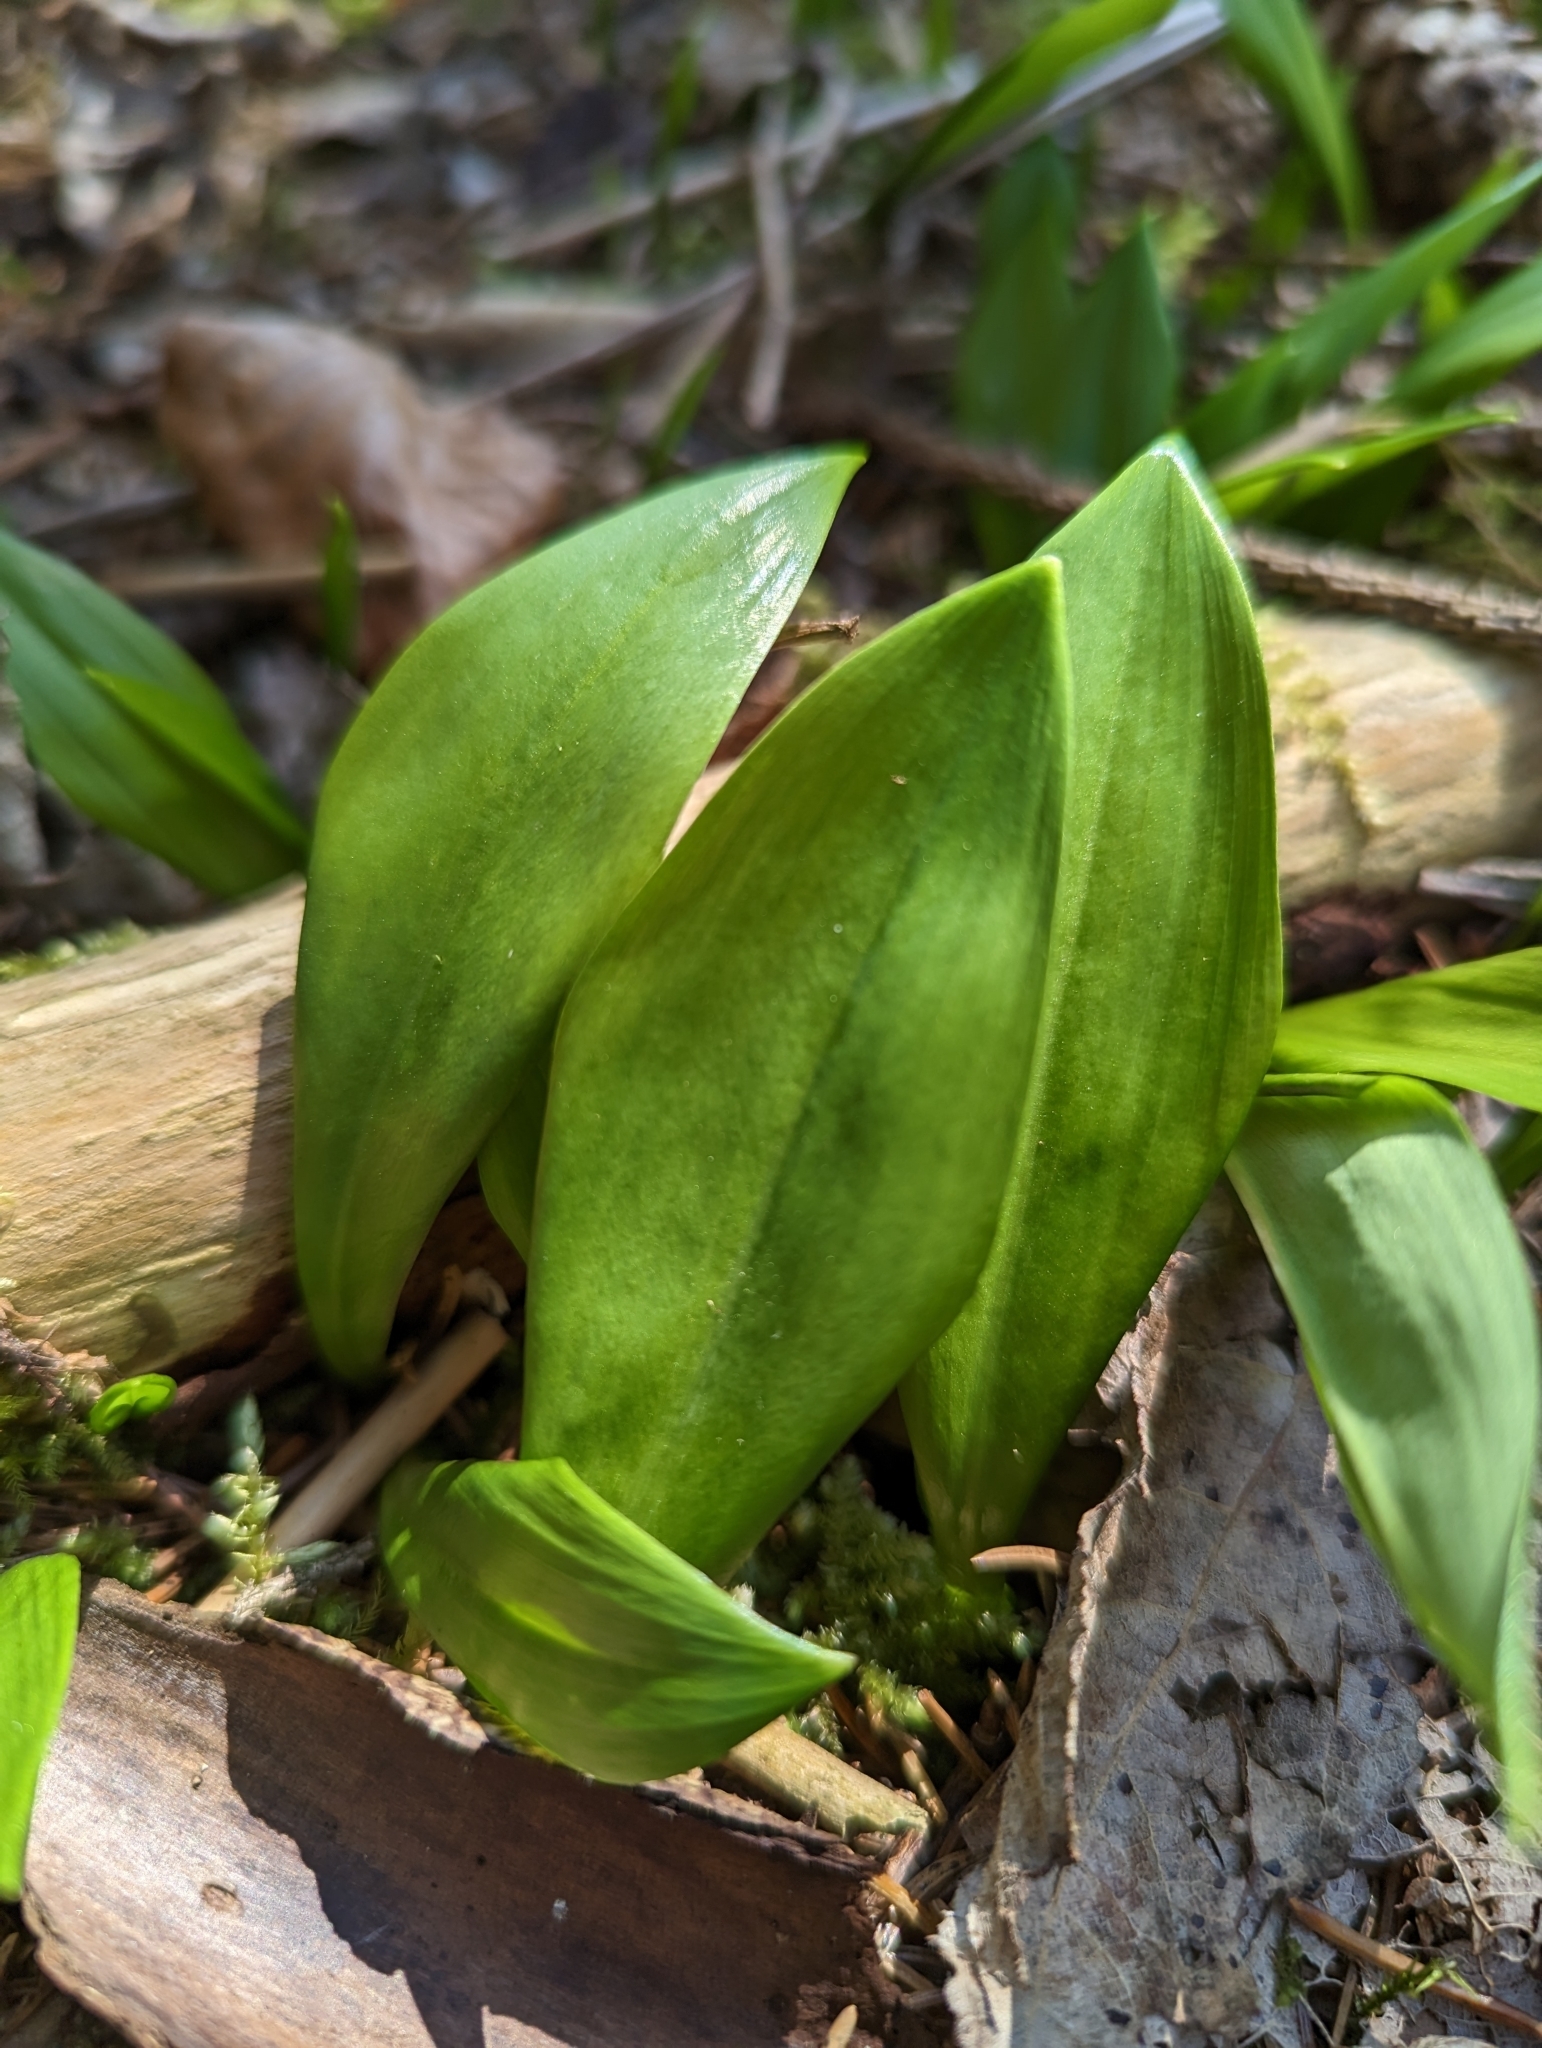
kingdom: Plantae
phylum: Tracheophyta
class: Liliopsida
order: Asparagales
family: Amaryllidaceae
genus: Allium
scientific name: Allium ursinum
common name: Ramsons
